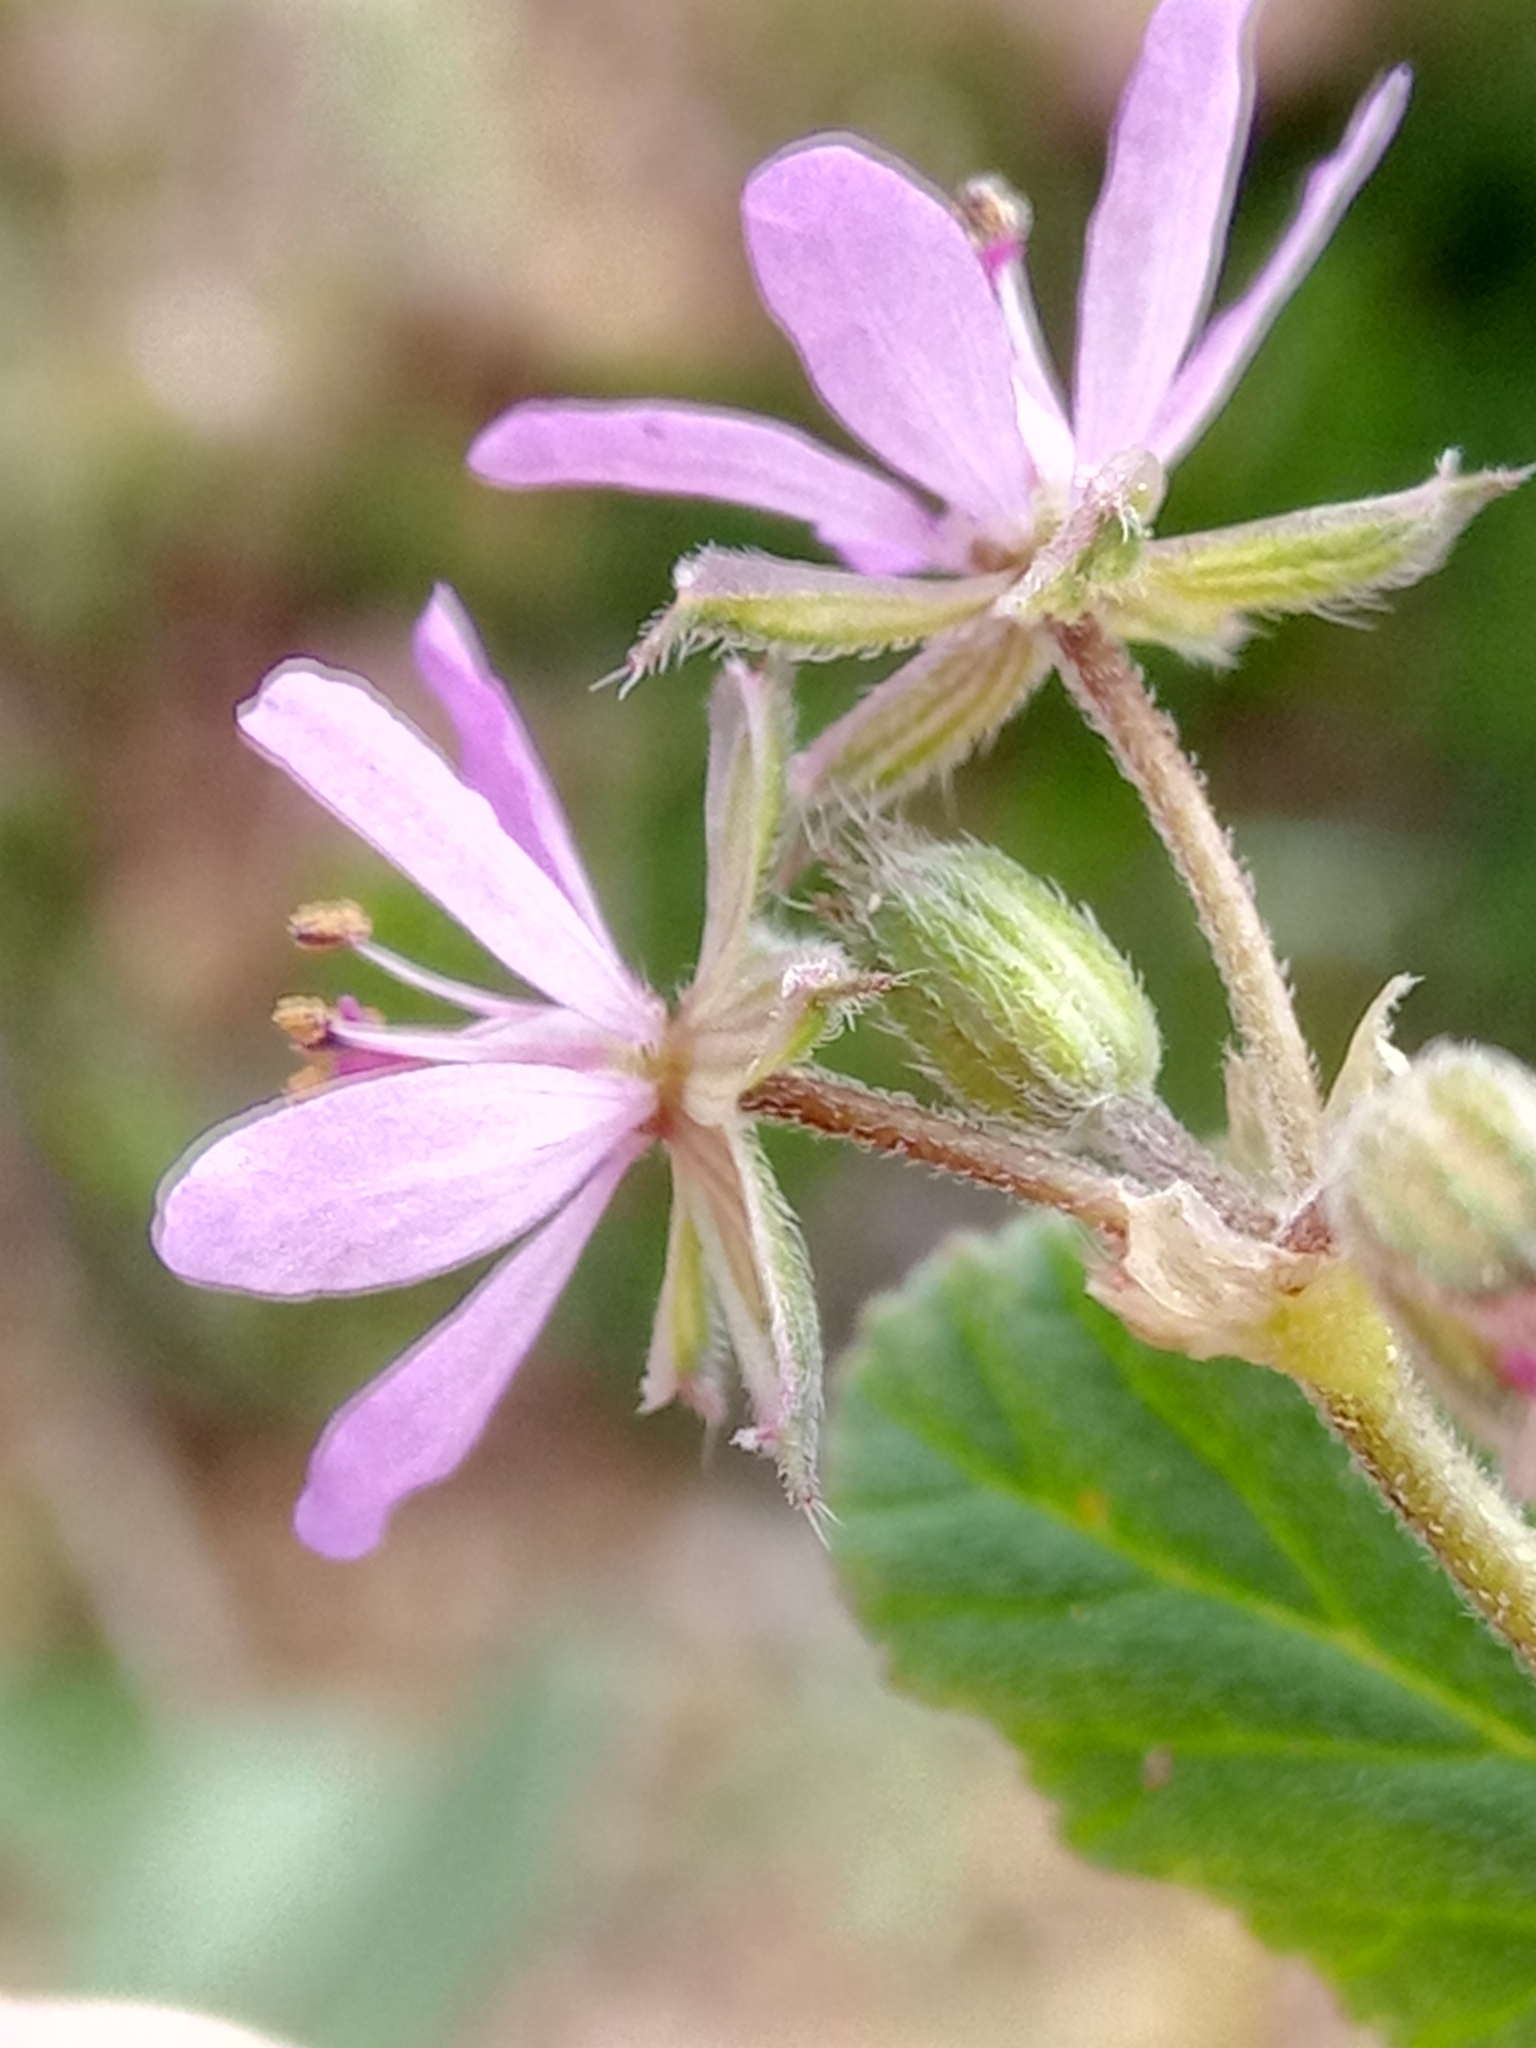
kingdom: Plantae
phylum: Tracheophyta
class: Magnoliopsida
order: Geraniales
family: Geraniaceae
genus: Erodium
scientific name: Erodium malacoides
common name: Soft stork's-bill
